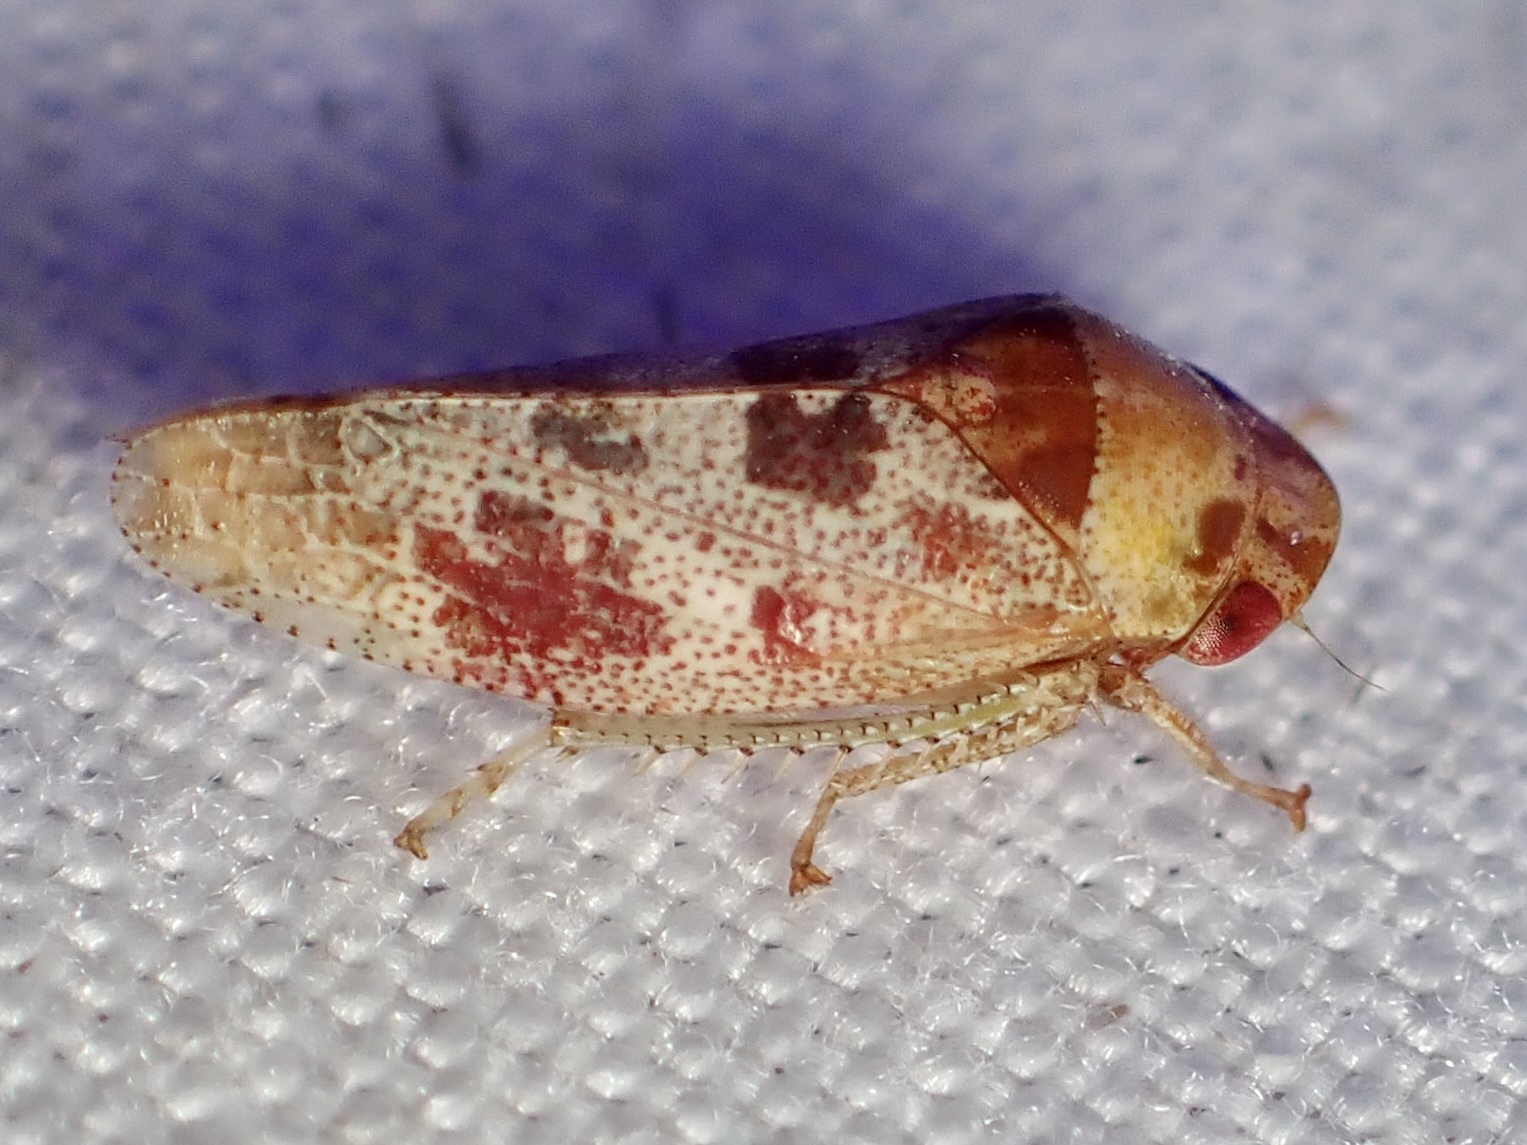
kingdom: Animalia
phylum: Arthropoda
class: Insecta
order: Hemiptera
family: Cicadellidae
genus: Dragonana
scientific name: Dragonana dracontea
